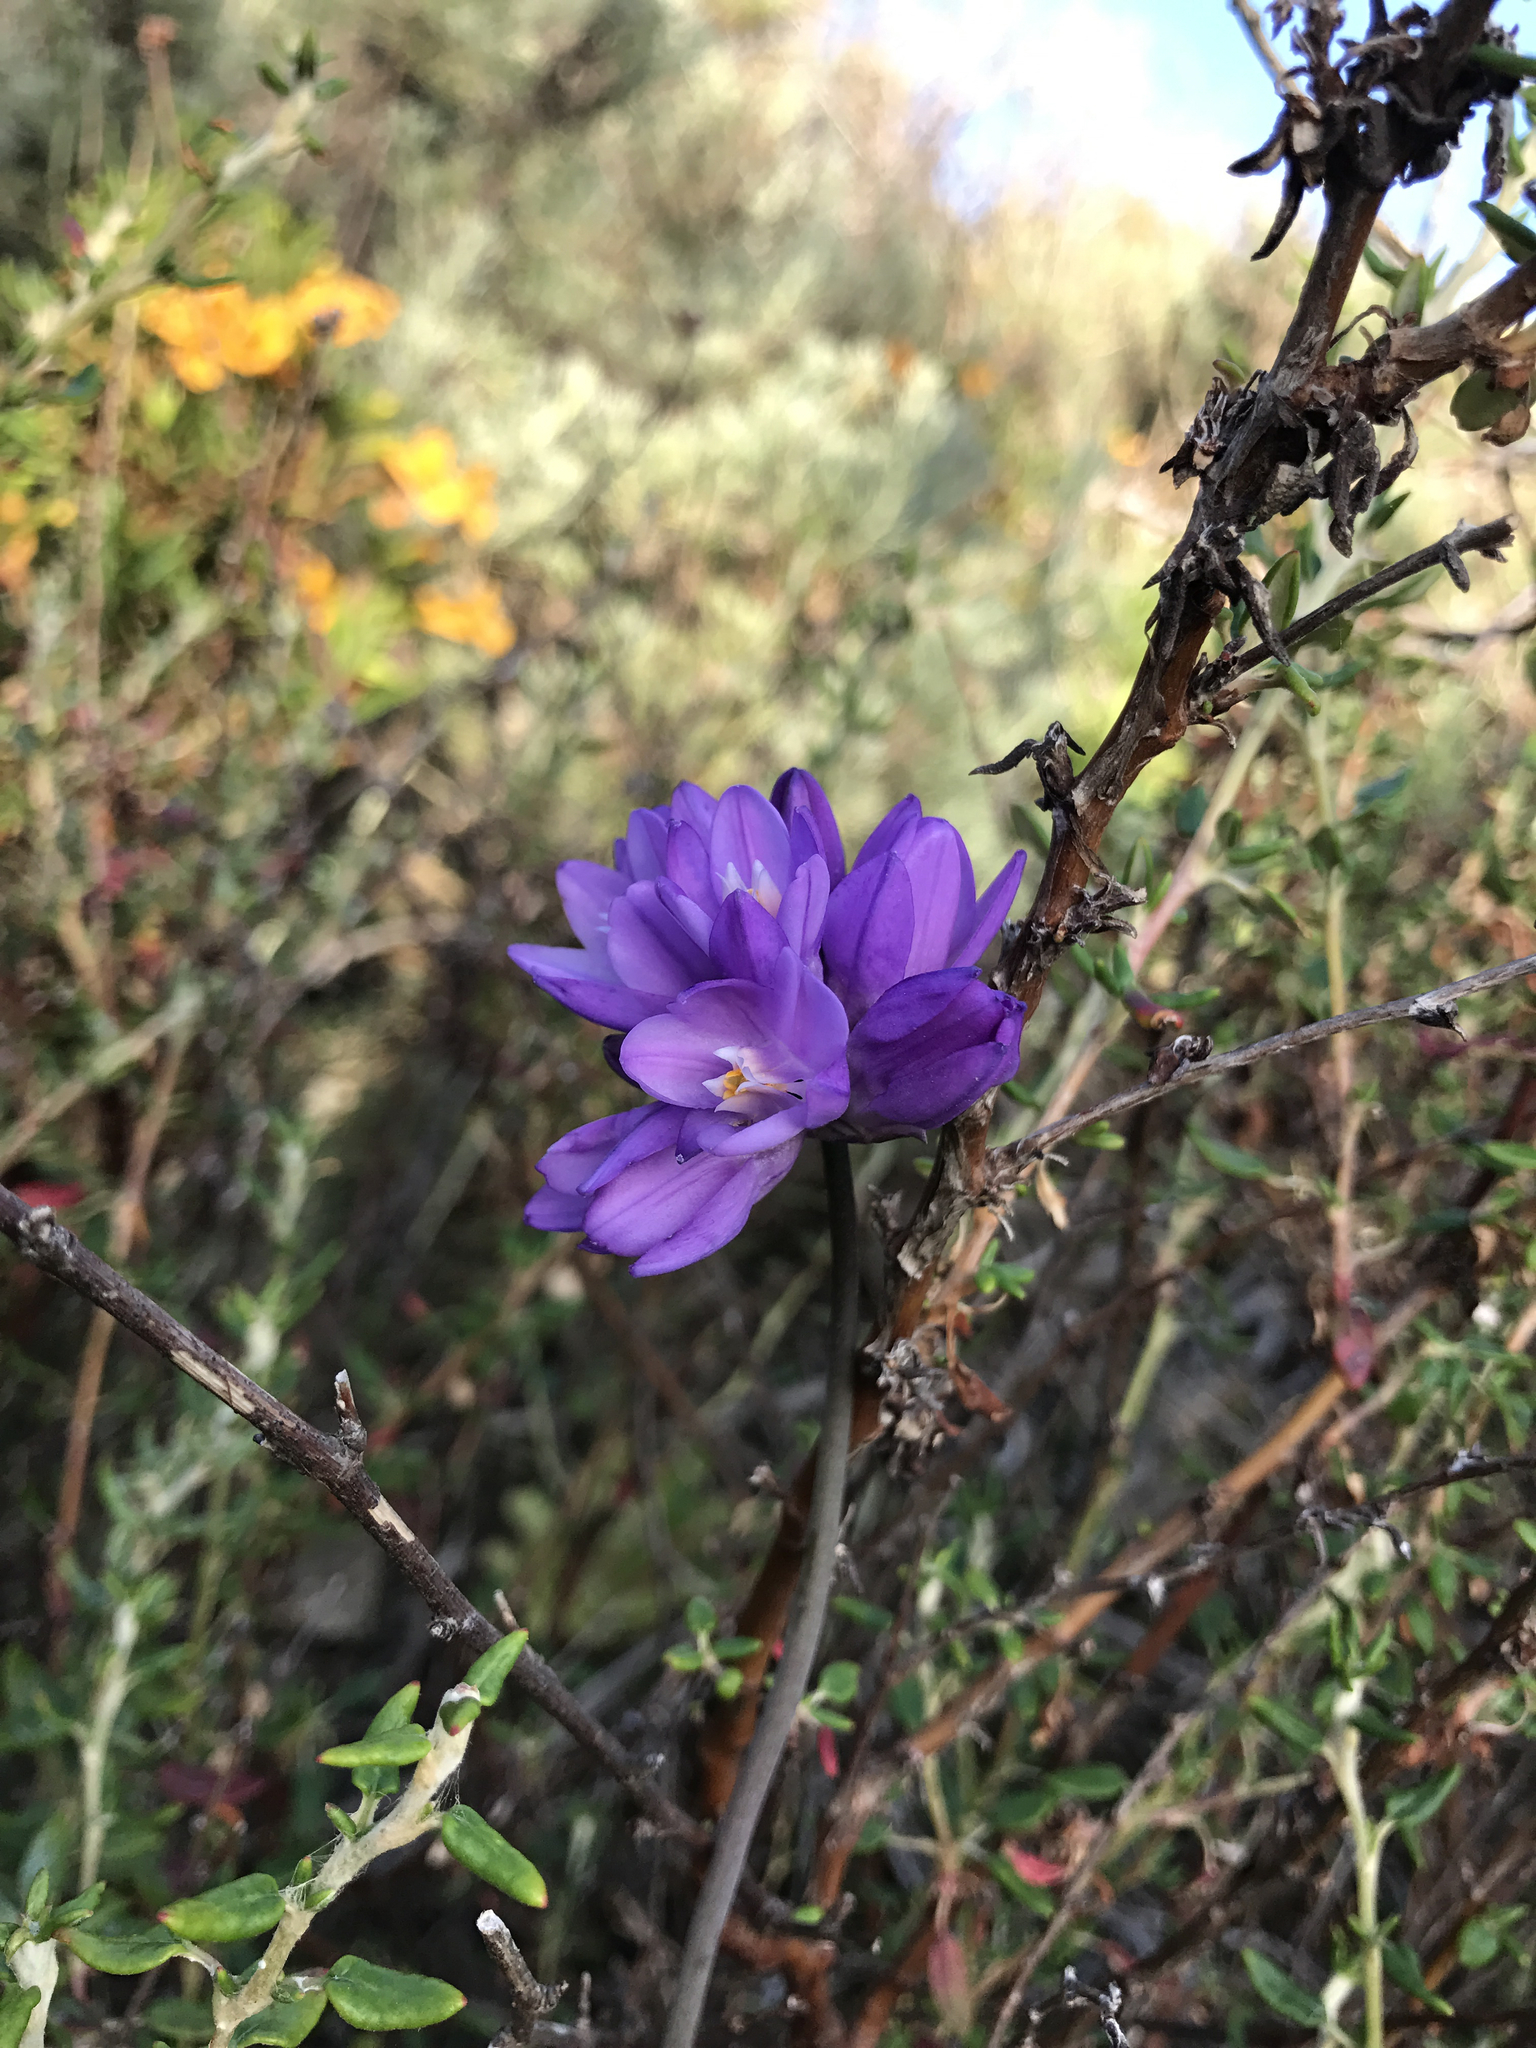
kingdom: Plantae
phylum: Tracheophyta
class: Liliopsida
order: Asparagales
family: Asparagaceae
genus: Dipterostemon
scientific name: Dipterostemon capitatus
